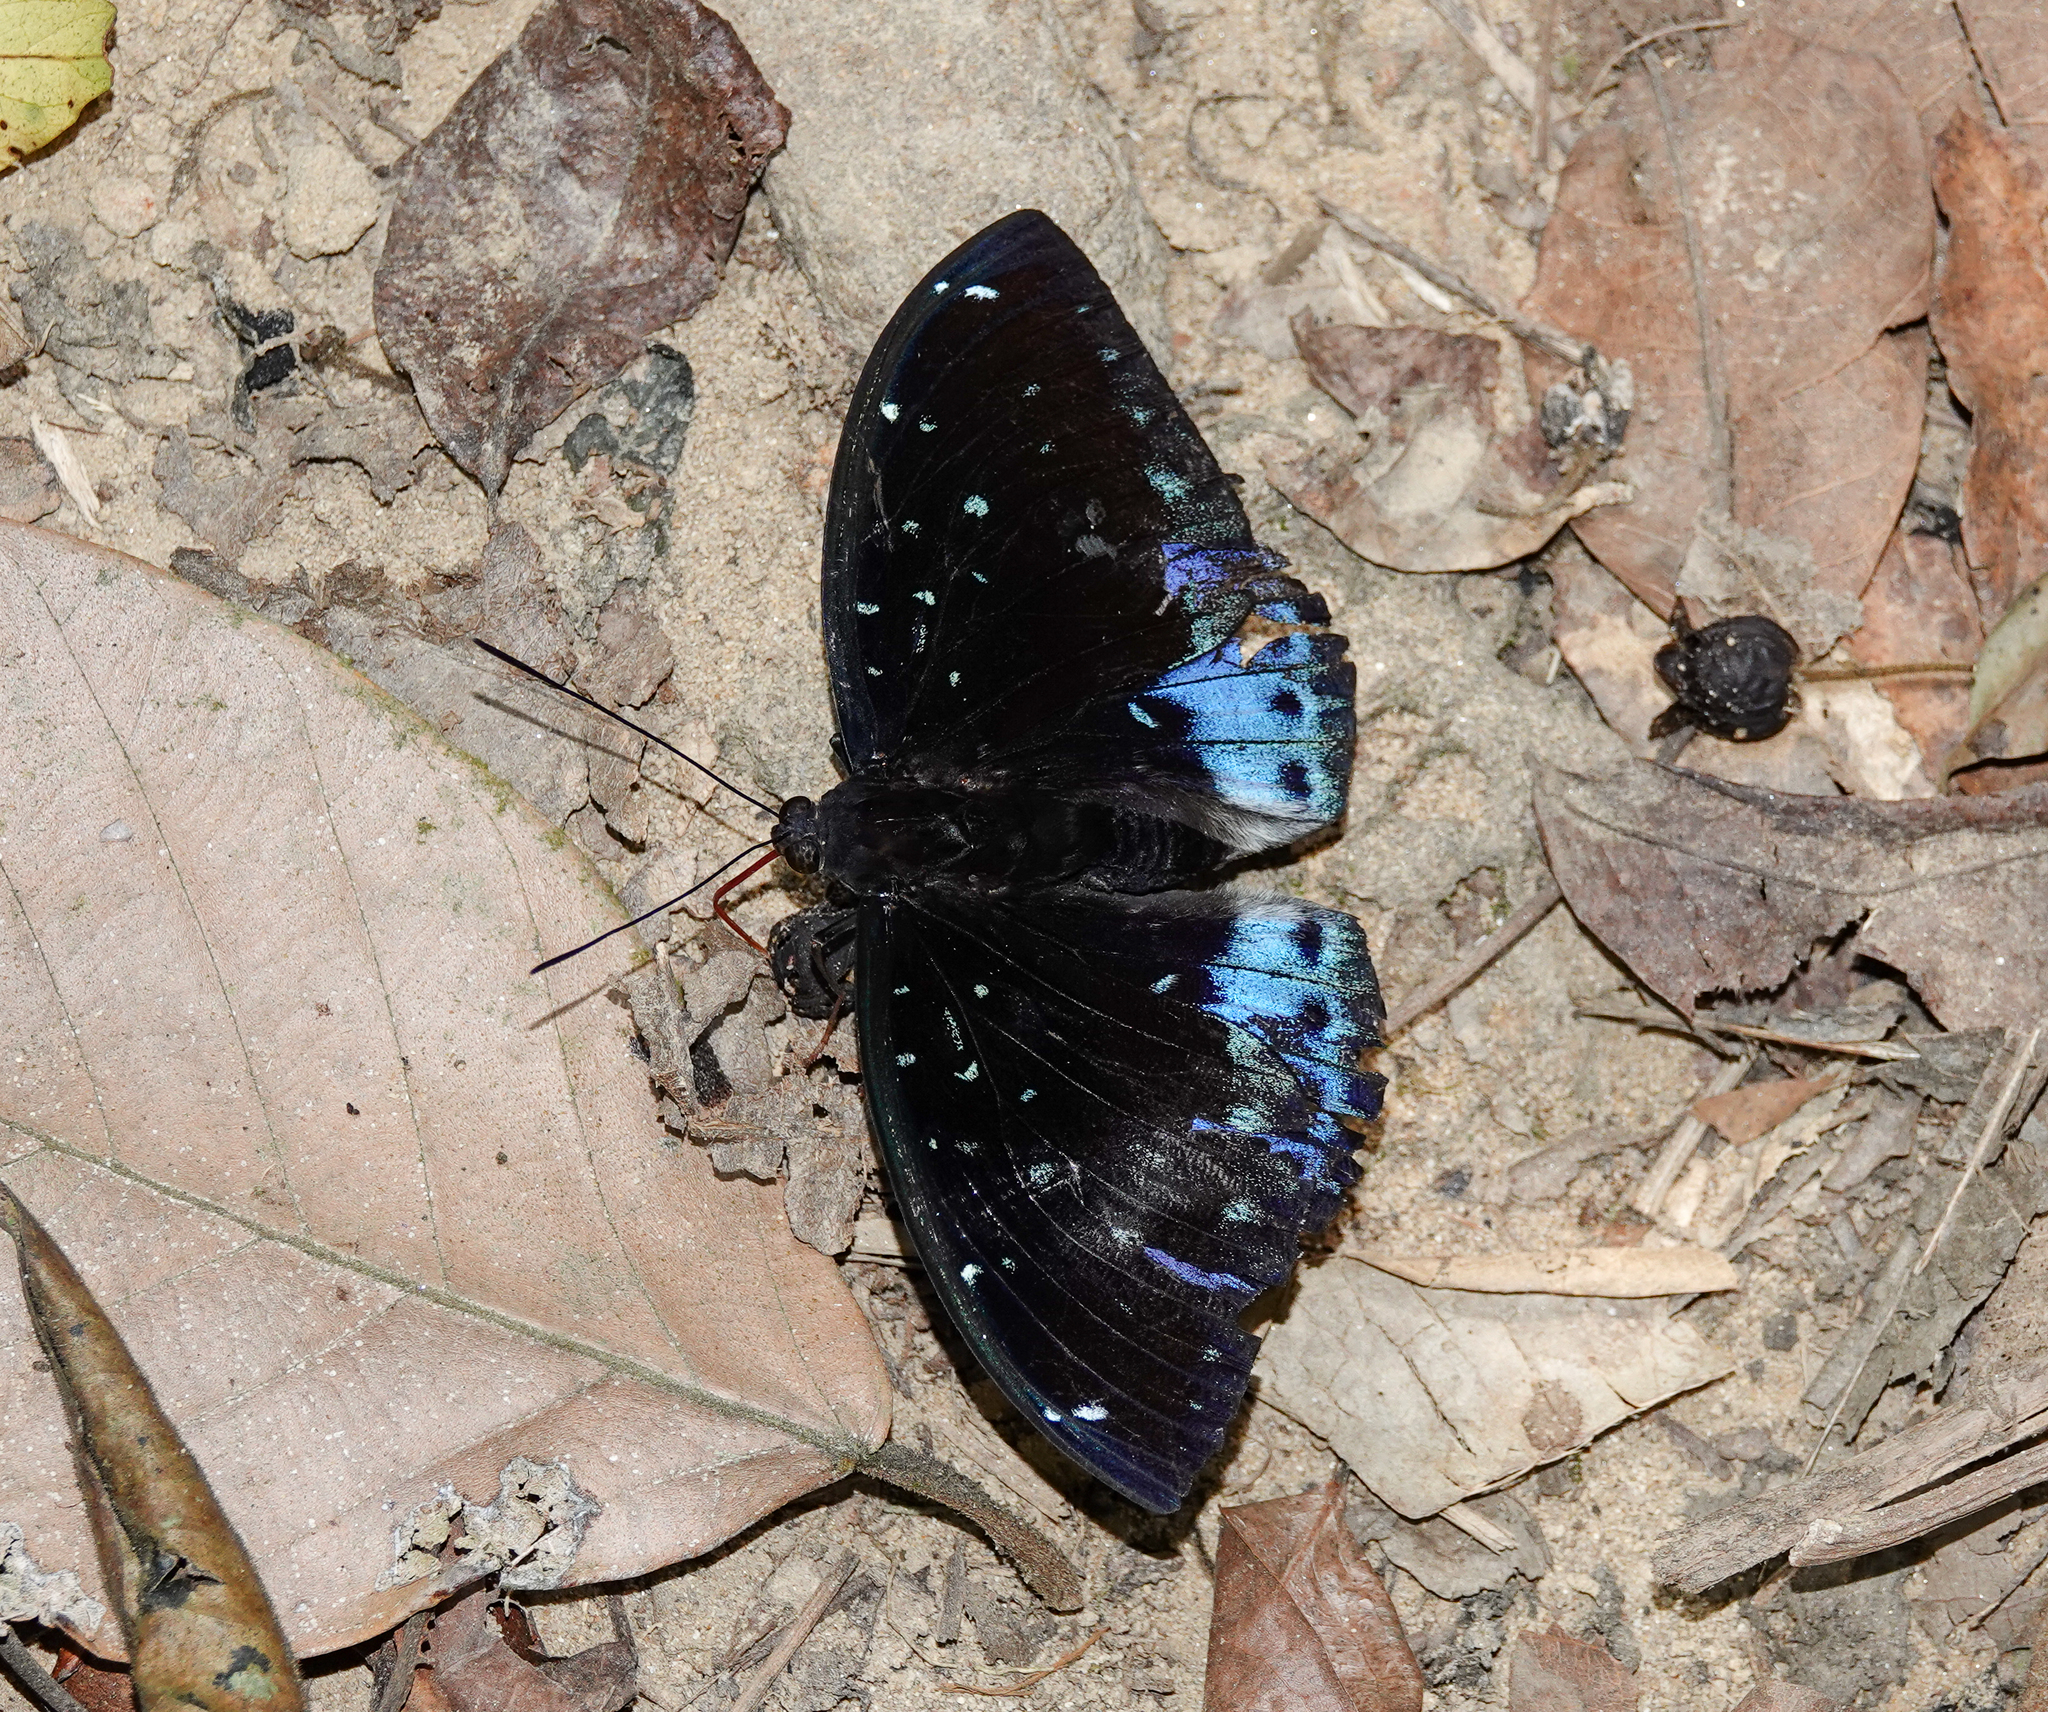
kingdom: Animalia
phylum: Arthropoda
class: Insecta
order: Lepidoptera
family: Nymphalidae
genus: Lexias
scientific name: Lexias dirtea
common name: Black-tipped archduke
